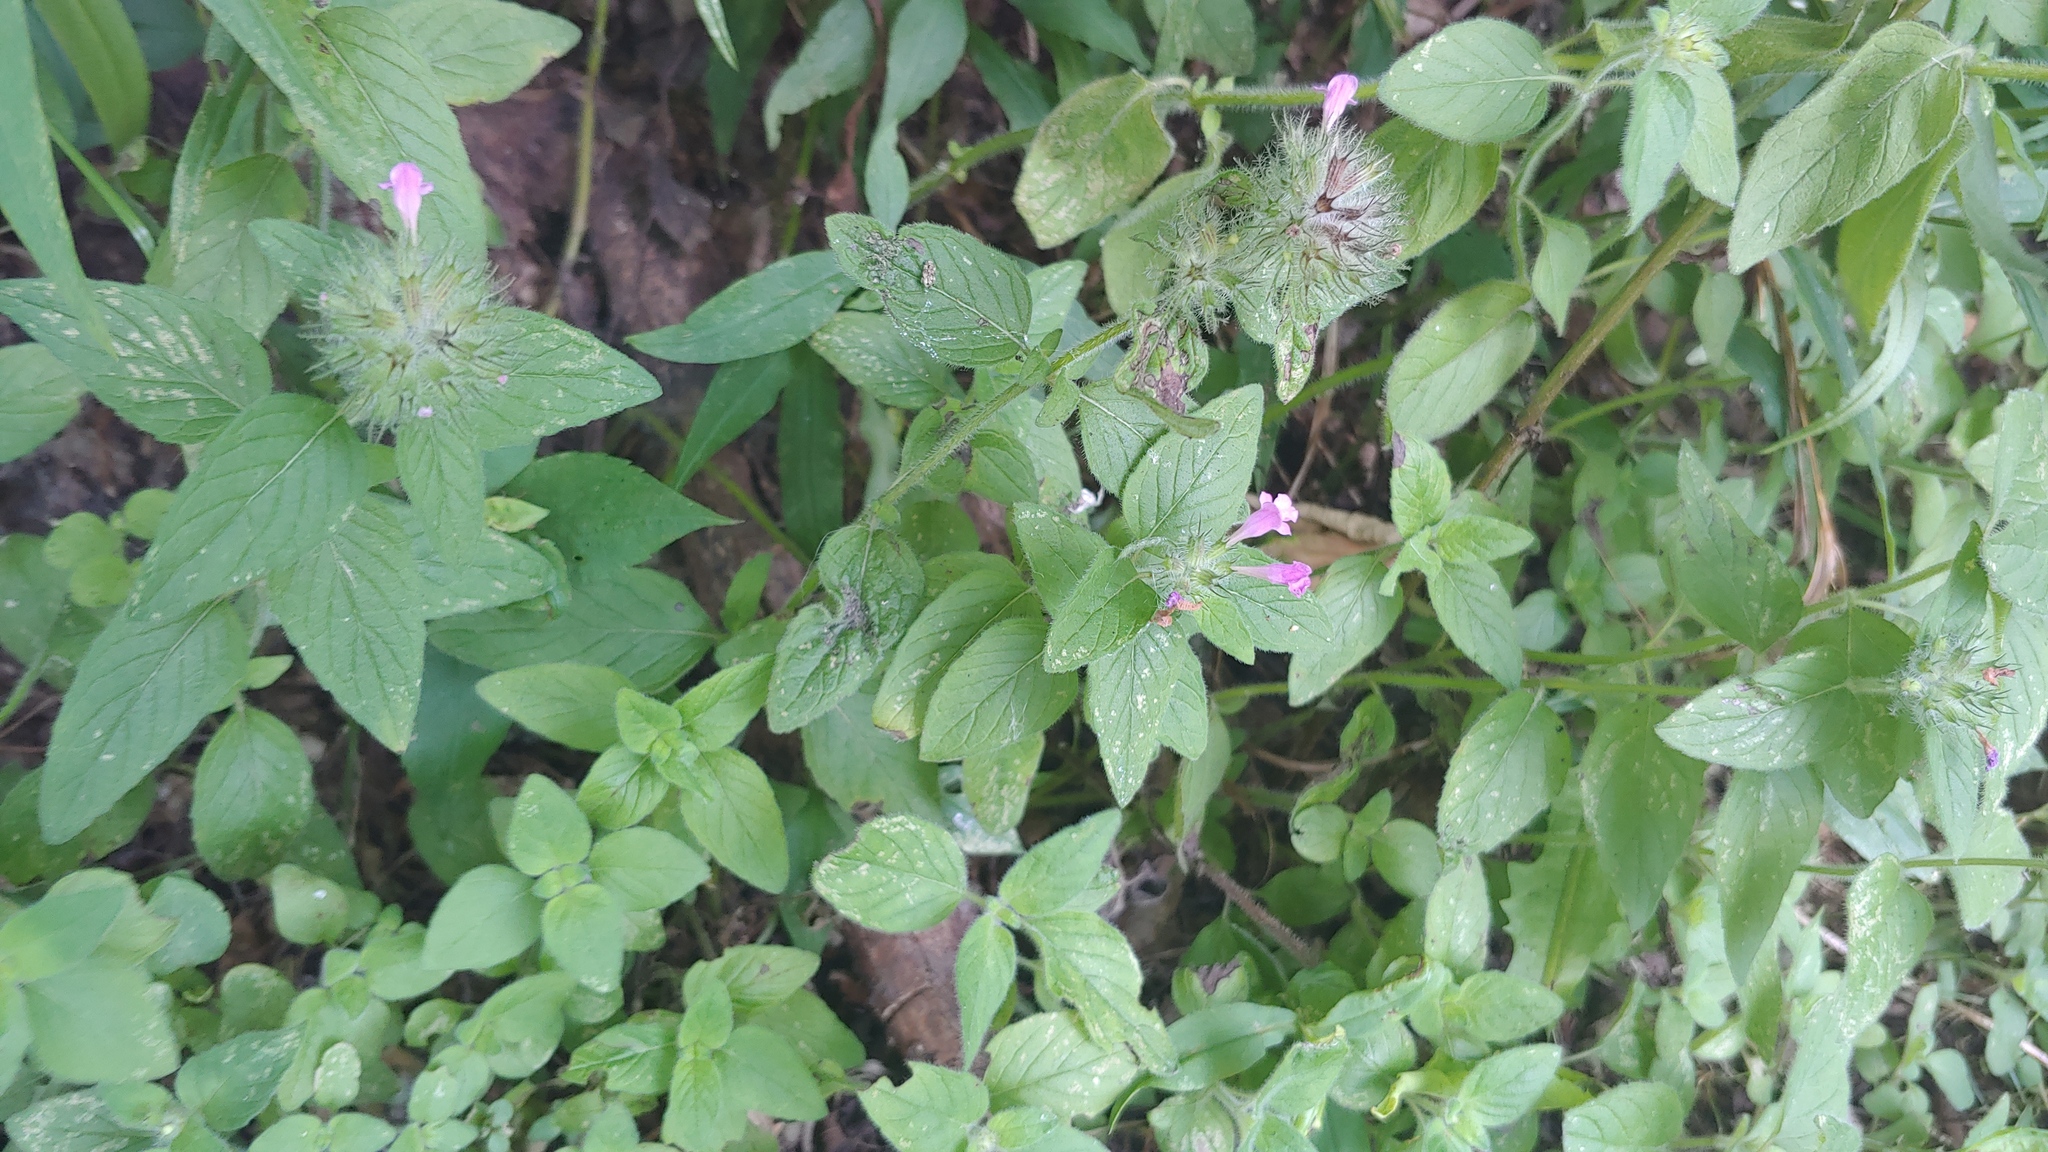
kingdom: Plantae
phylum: Tracheophyta
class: Magnoliopsida
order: Lamiales
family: Lamiaceae
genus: Clinopodium
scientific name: Clinopodium vulgare
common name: Wild basil
